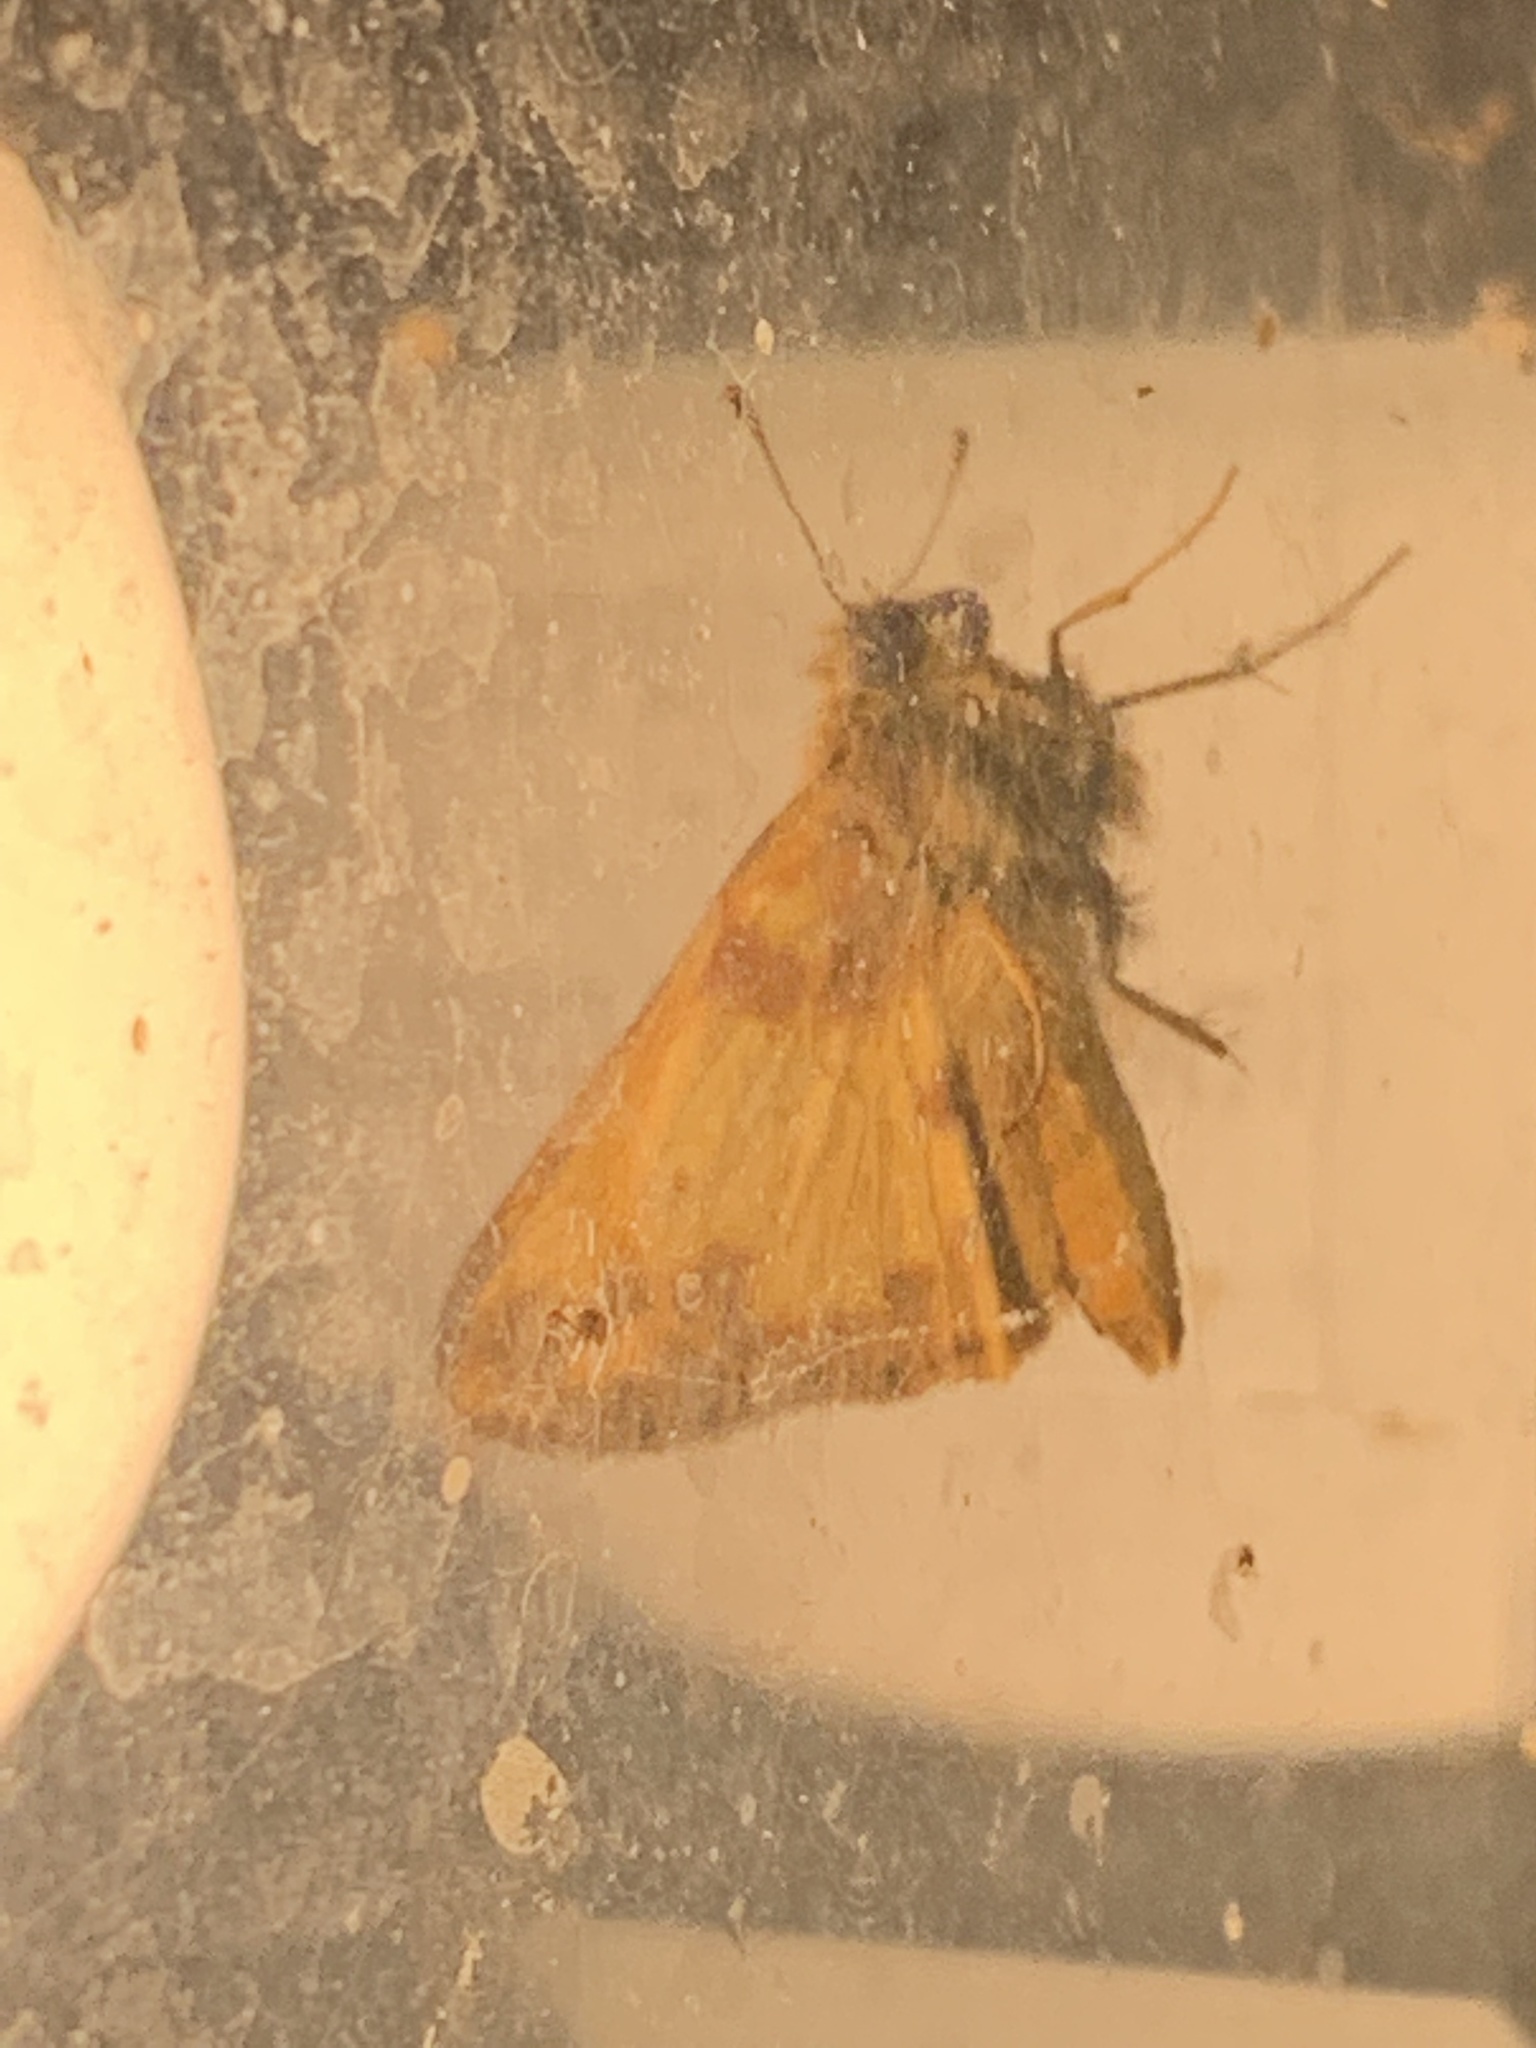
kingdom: Animalia
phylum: Arthropoda
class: Insecta
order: Lepidoptera
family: Hesperiidae
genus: Lon
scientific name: Lon zabulon
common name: Zabulon skipper
